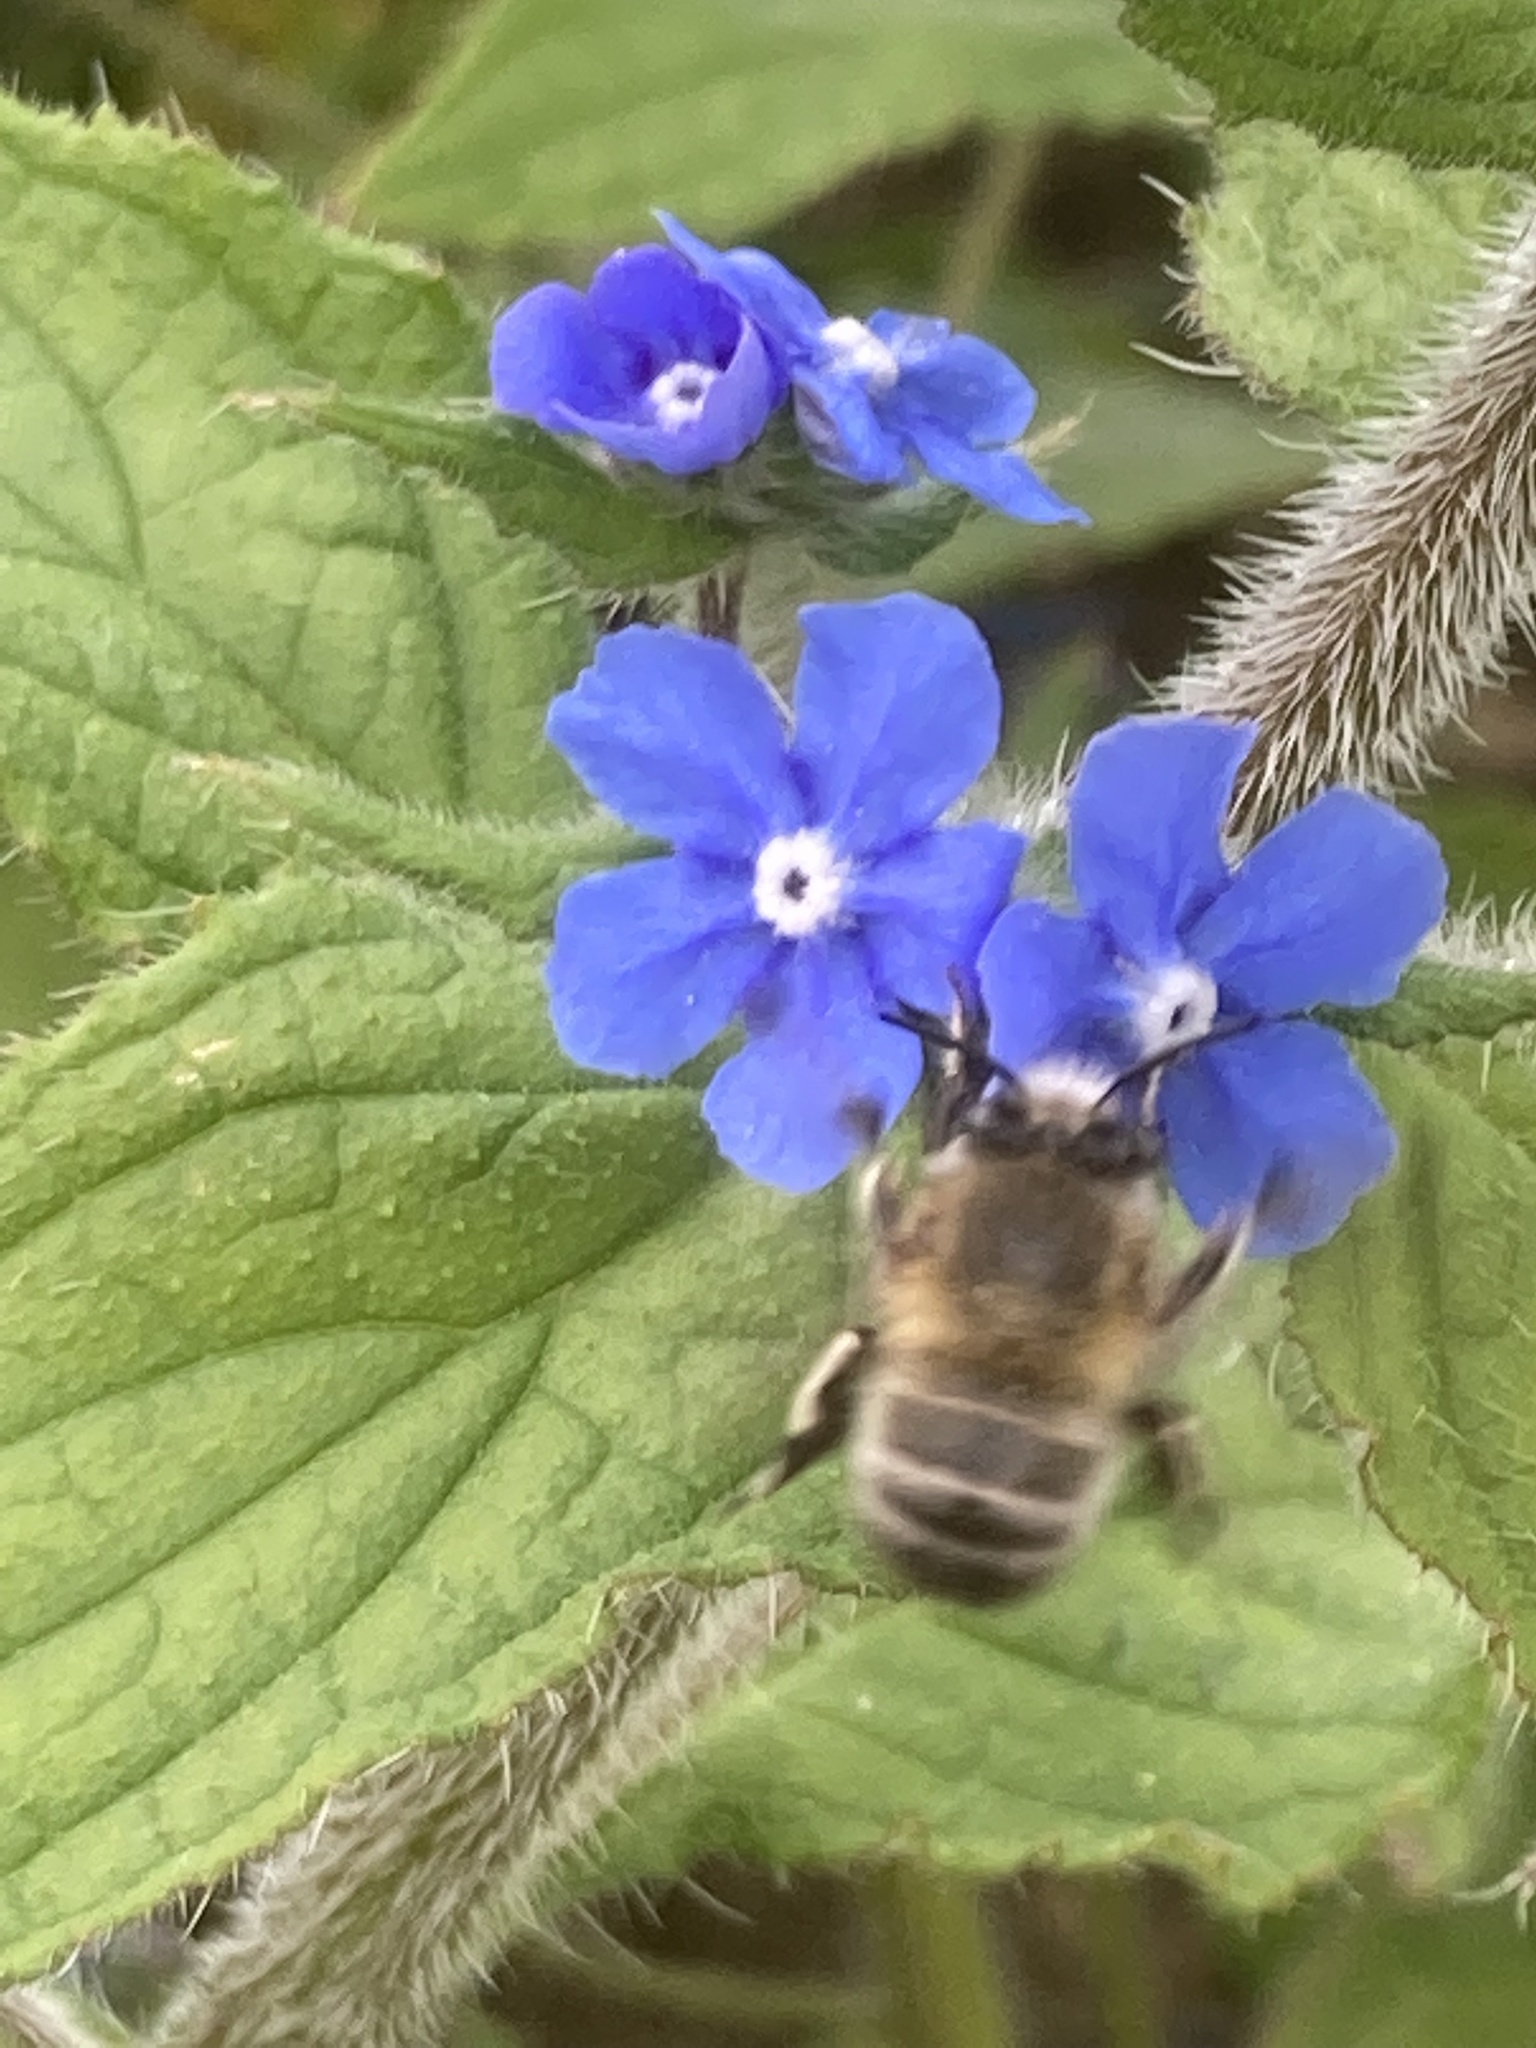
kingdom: Animalia
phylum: Arthropoda
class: Insecta
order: Hymenoptera
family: Apidae
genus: Anthophora
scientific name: Anthophora plumipes
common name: Hairy-footed flower bee
